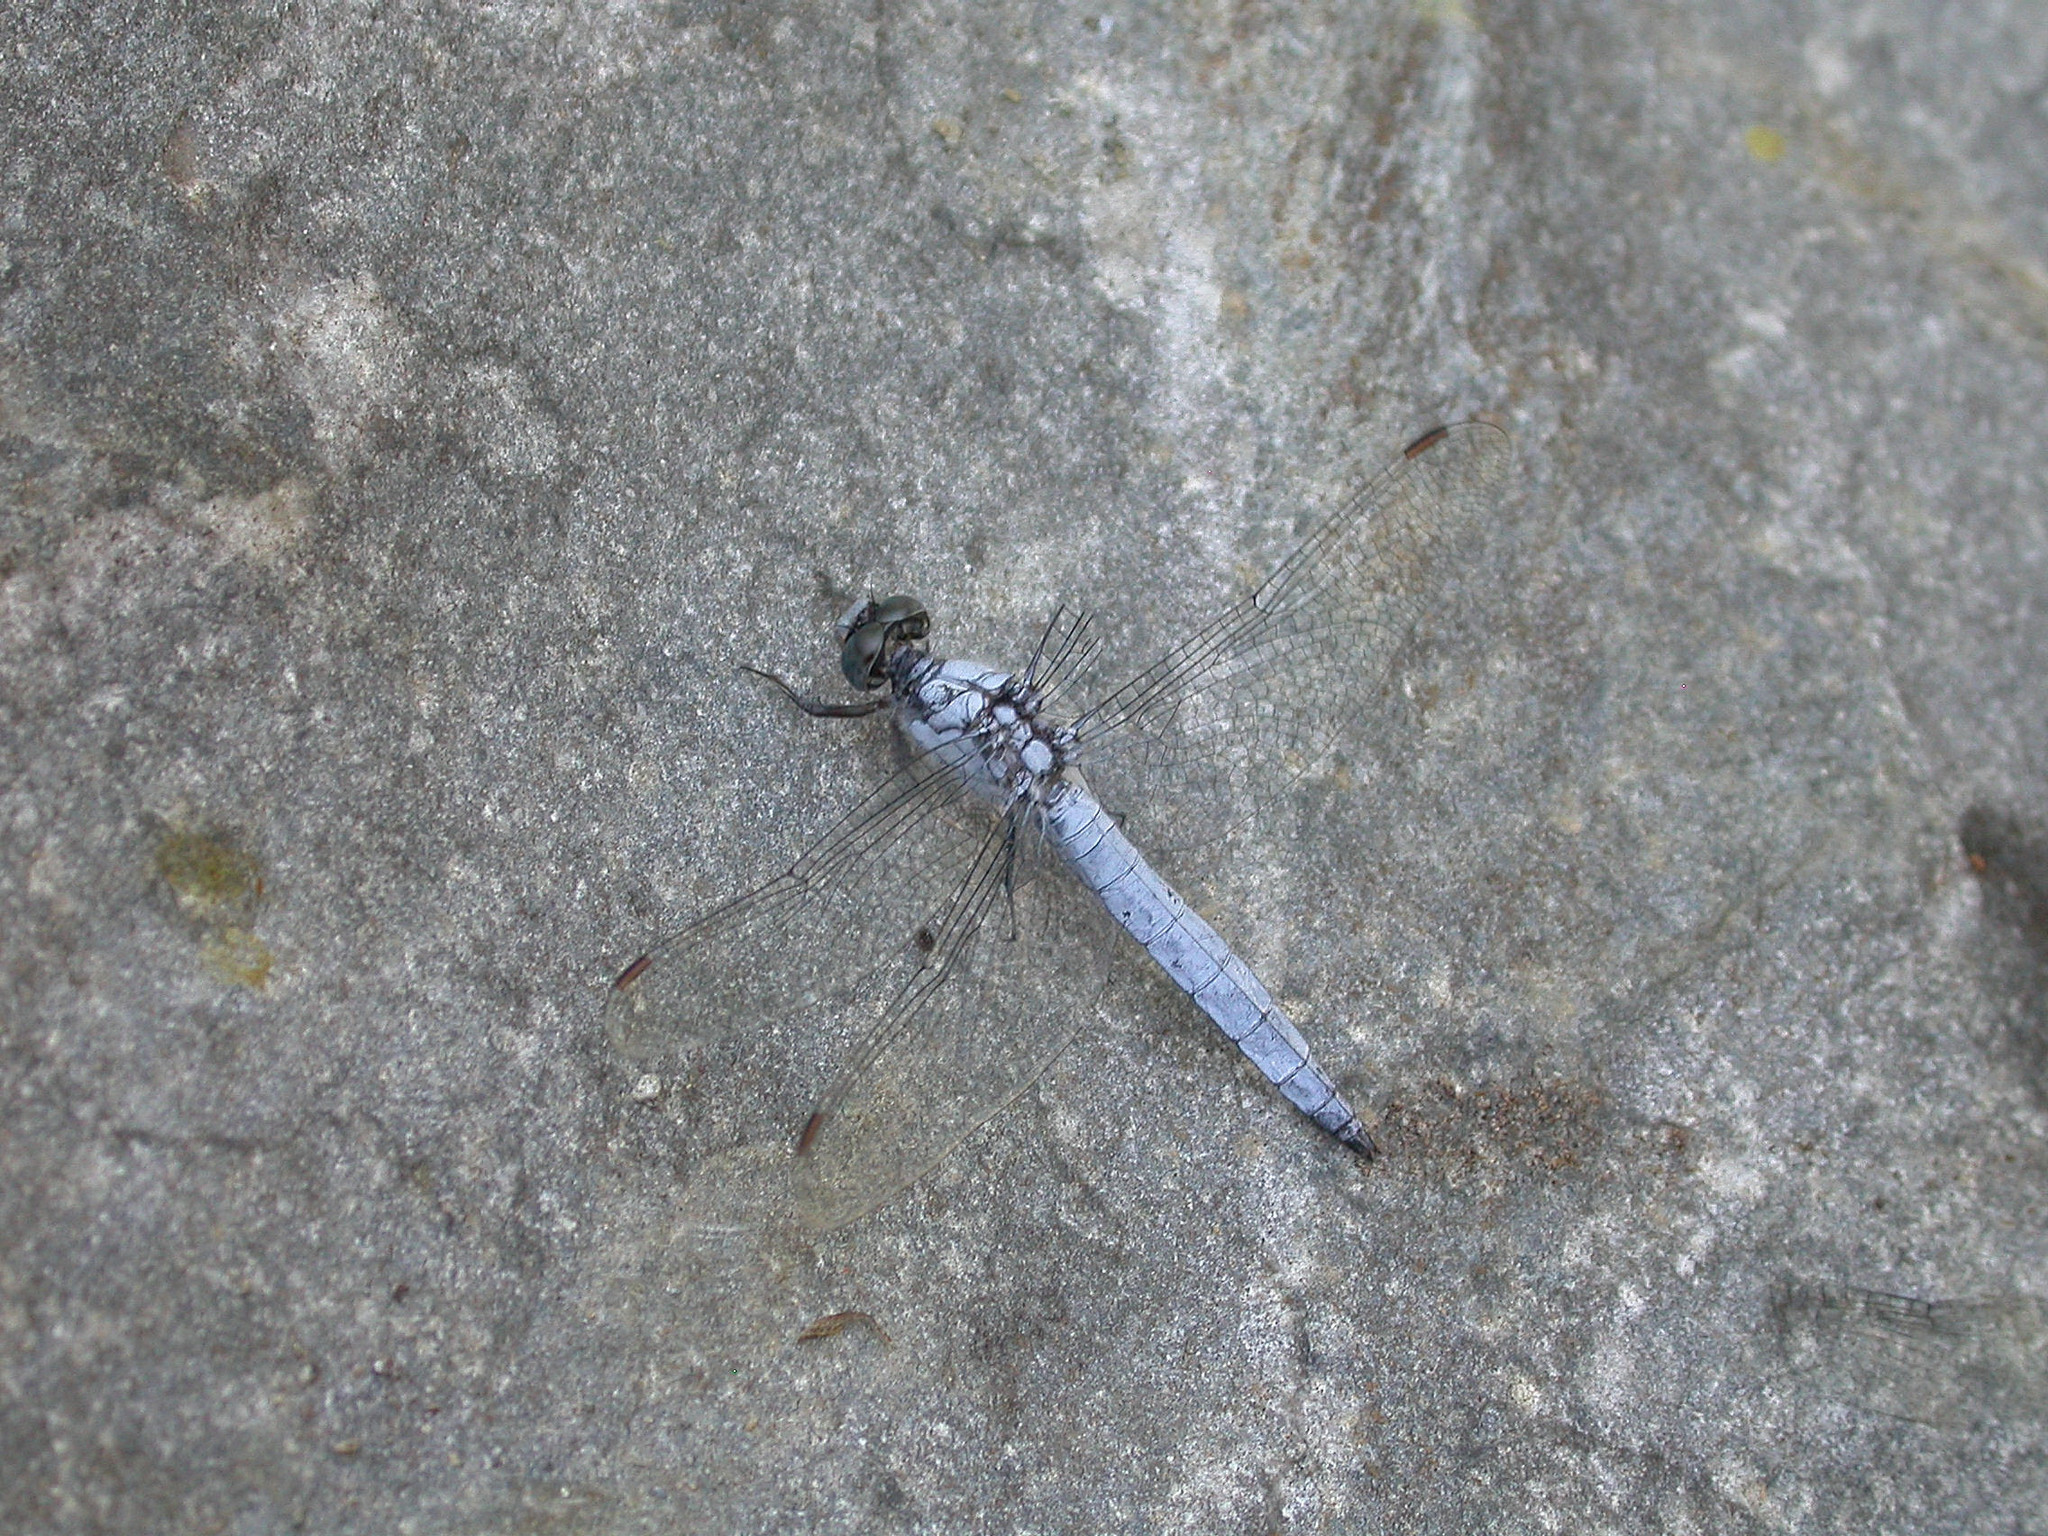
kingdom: Animalia
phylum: Arthropoda
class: Insecta
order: Odonata
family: Libellulidae
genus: Orthetrum
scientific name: Orthetrum brunneum
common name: Southern skimmer
